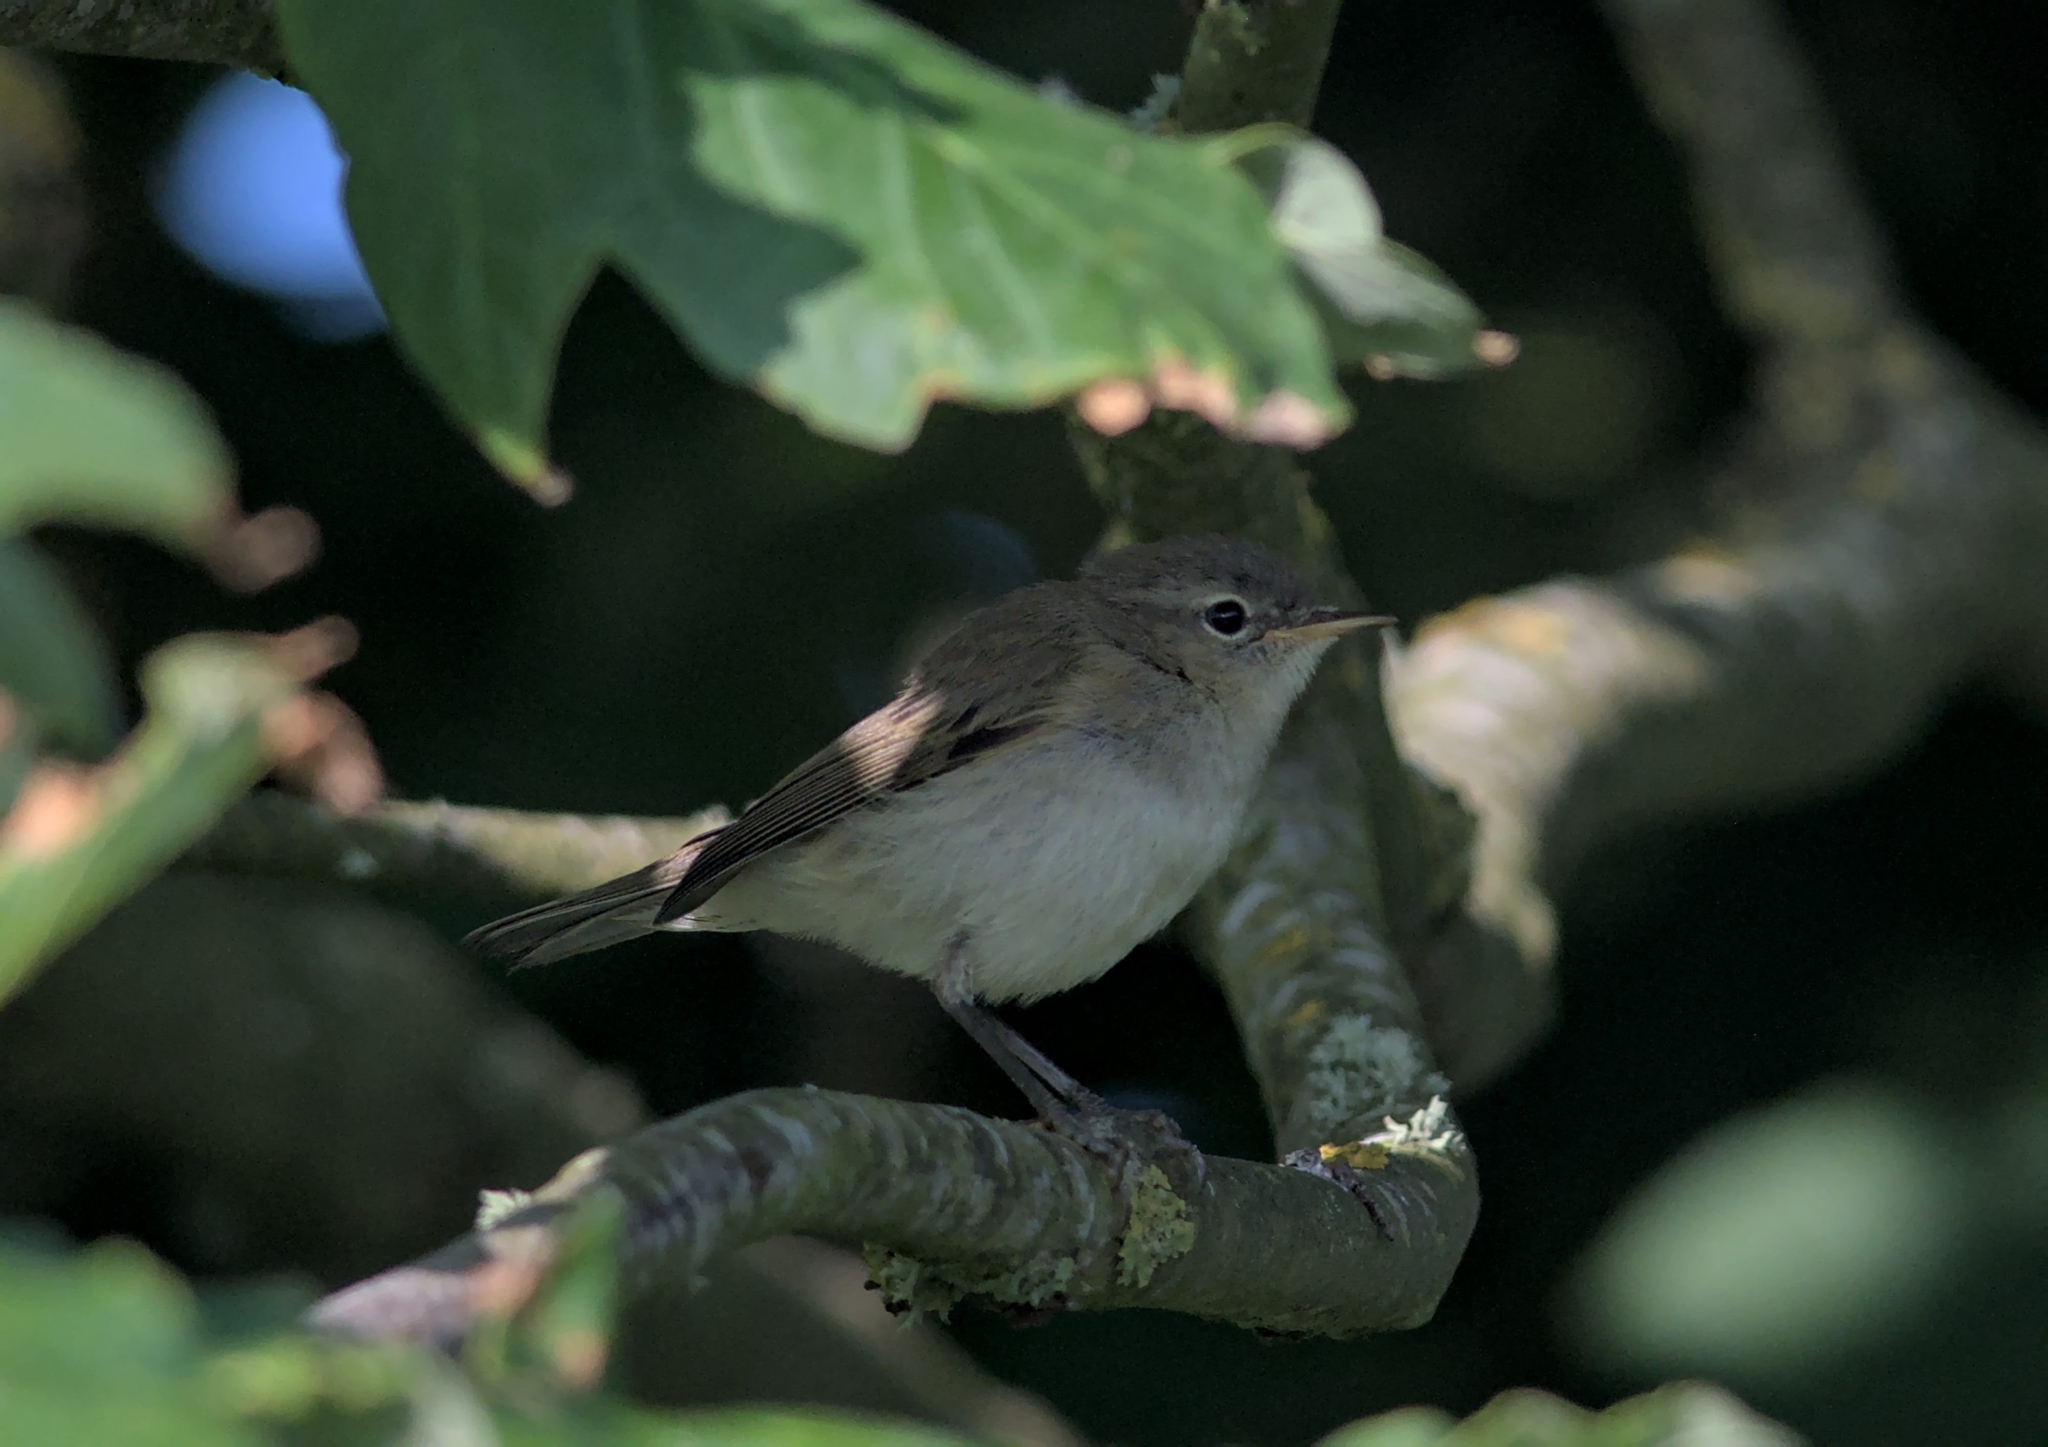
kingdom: Animalia
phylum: Chordata
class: Aves
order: Passeriformes
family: Phylloscopidae
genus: Phylloscopus
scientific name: Phylloscopus collybita
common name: Common chiffchaff
